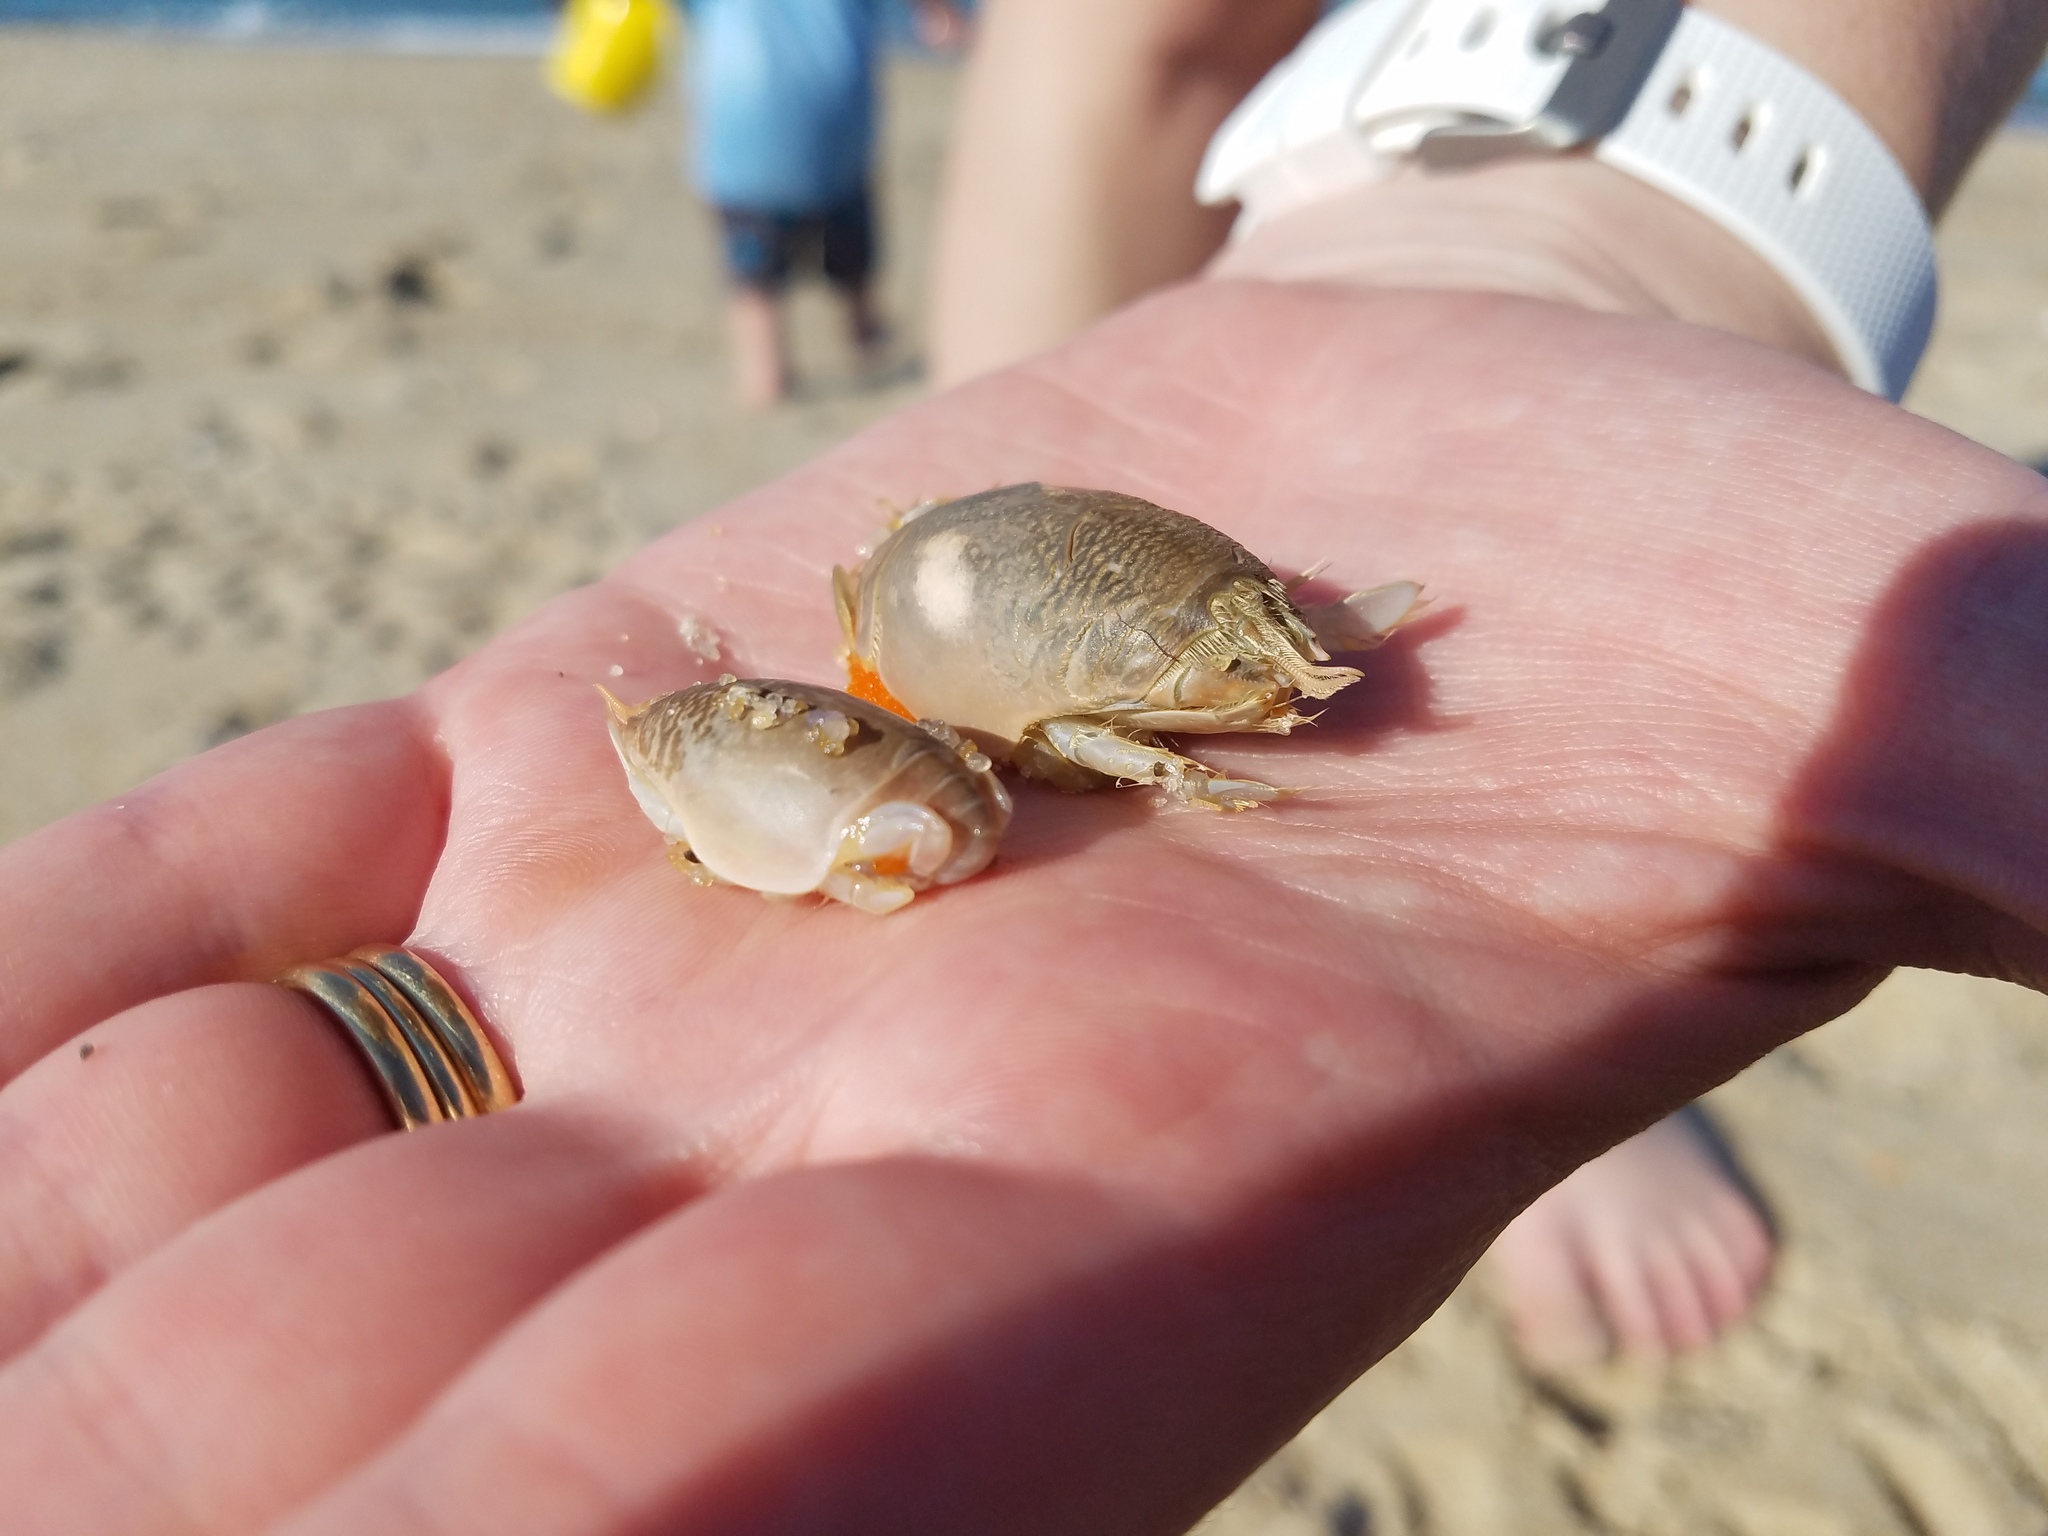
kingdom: Animalia
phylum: Arthropoda
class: Malacostraca
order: Decapoda
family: Hippidae
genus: Emerita
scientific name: Emerita talpoida
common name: Atlantic sand crab
